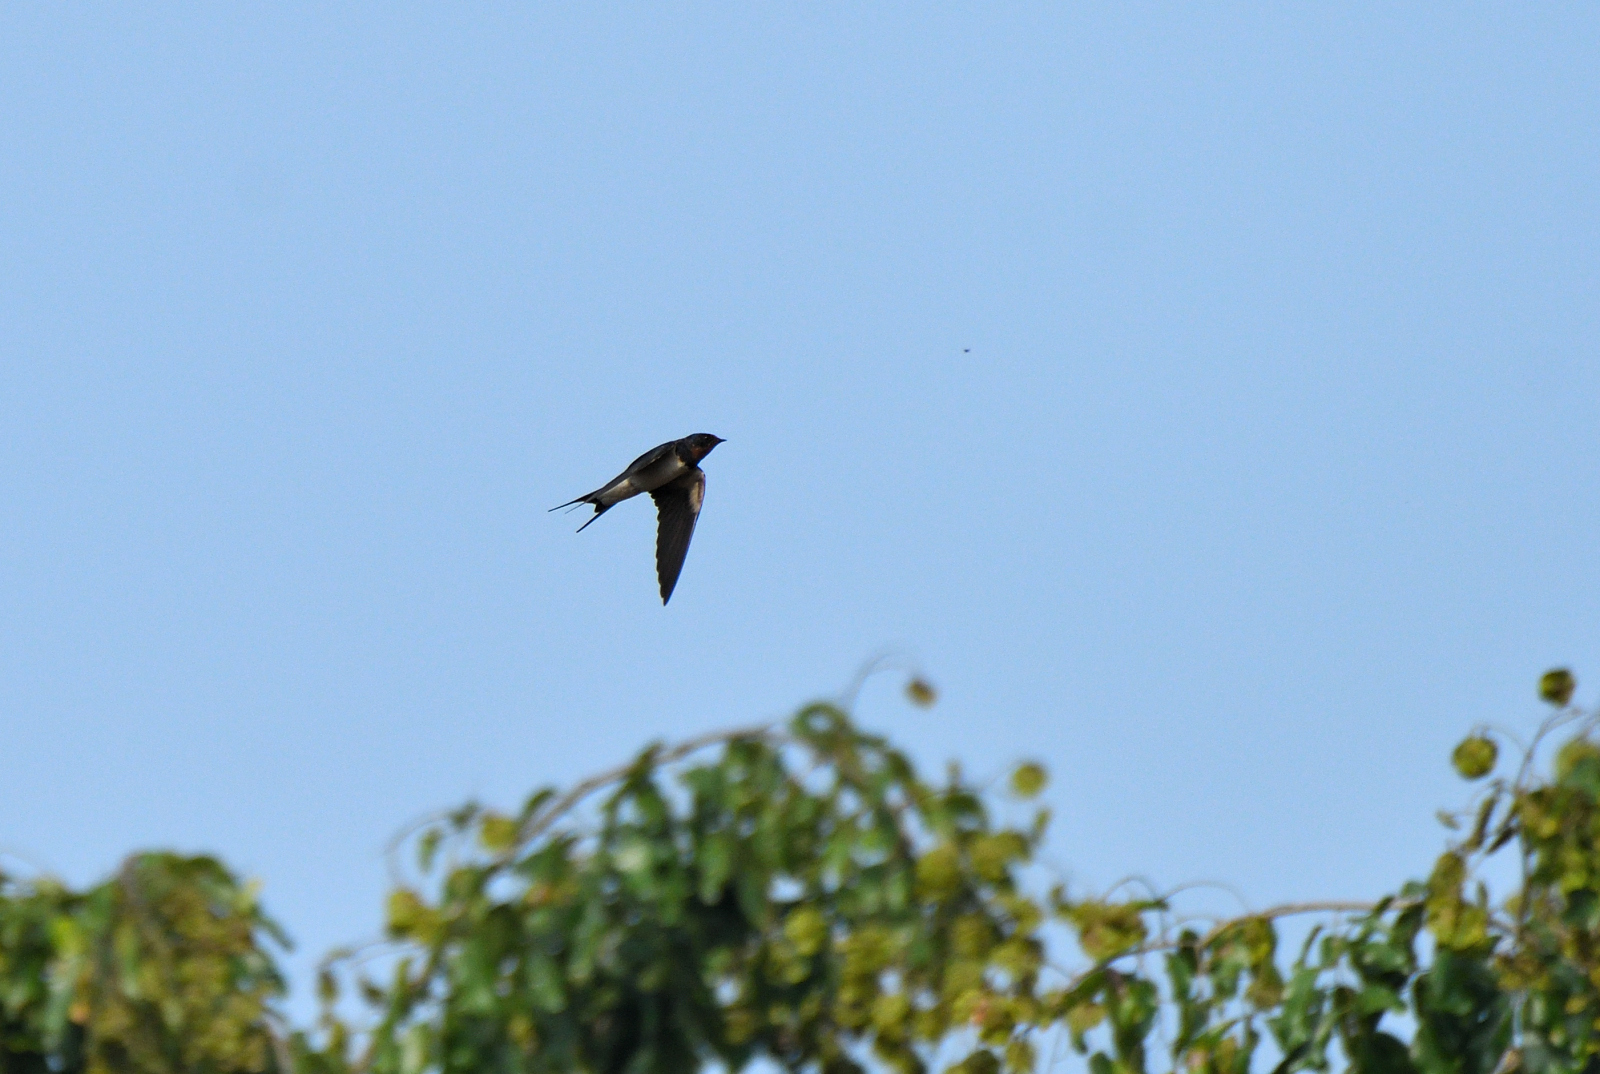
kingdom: Animalia
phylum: Chordata
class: Aves
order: Passeriformes
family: Hirundinidae
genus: Hirundo
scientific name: Hirundo rustica
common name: Barn swallow
